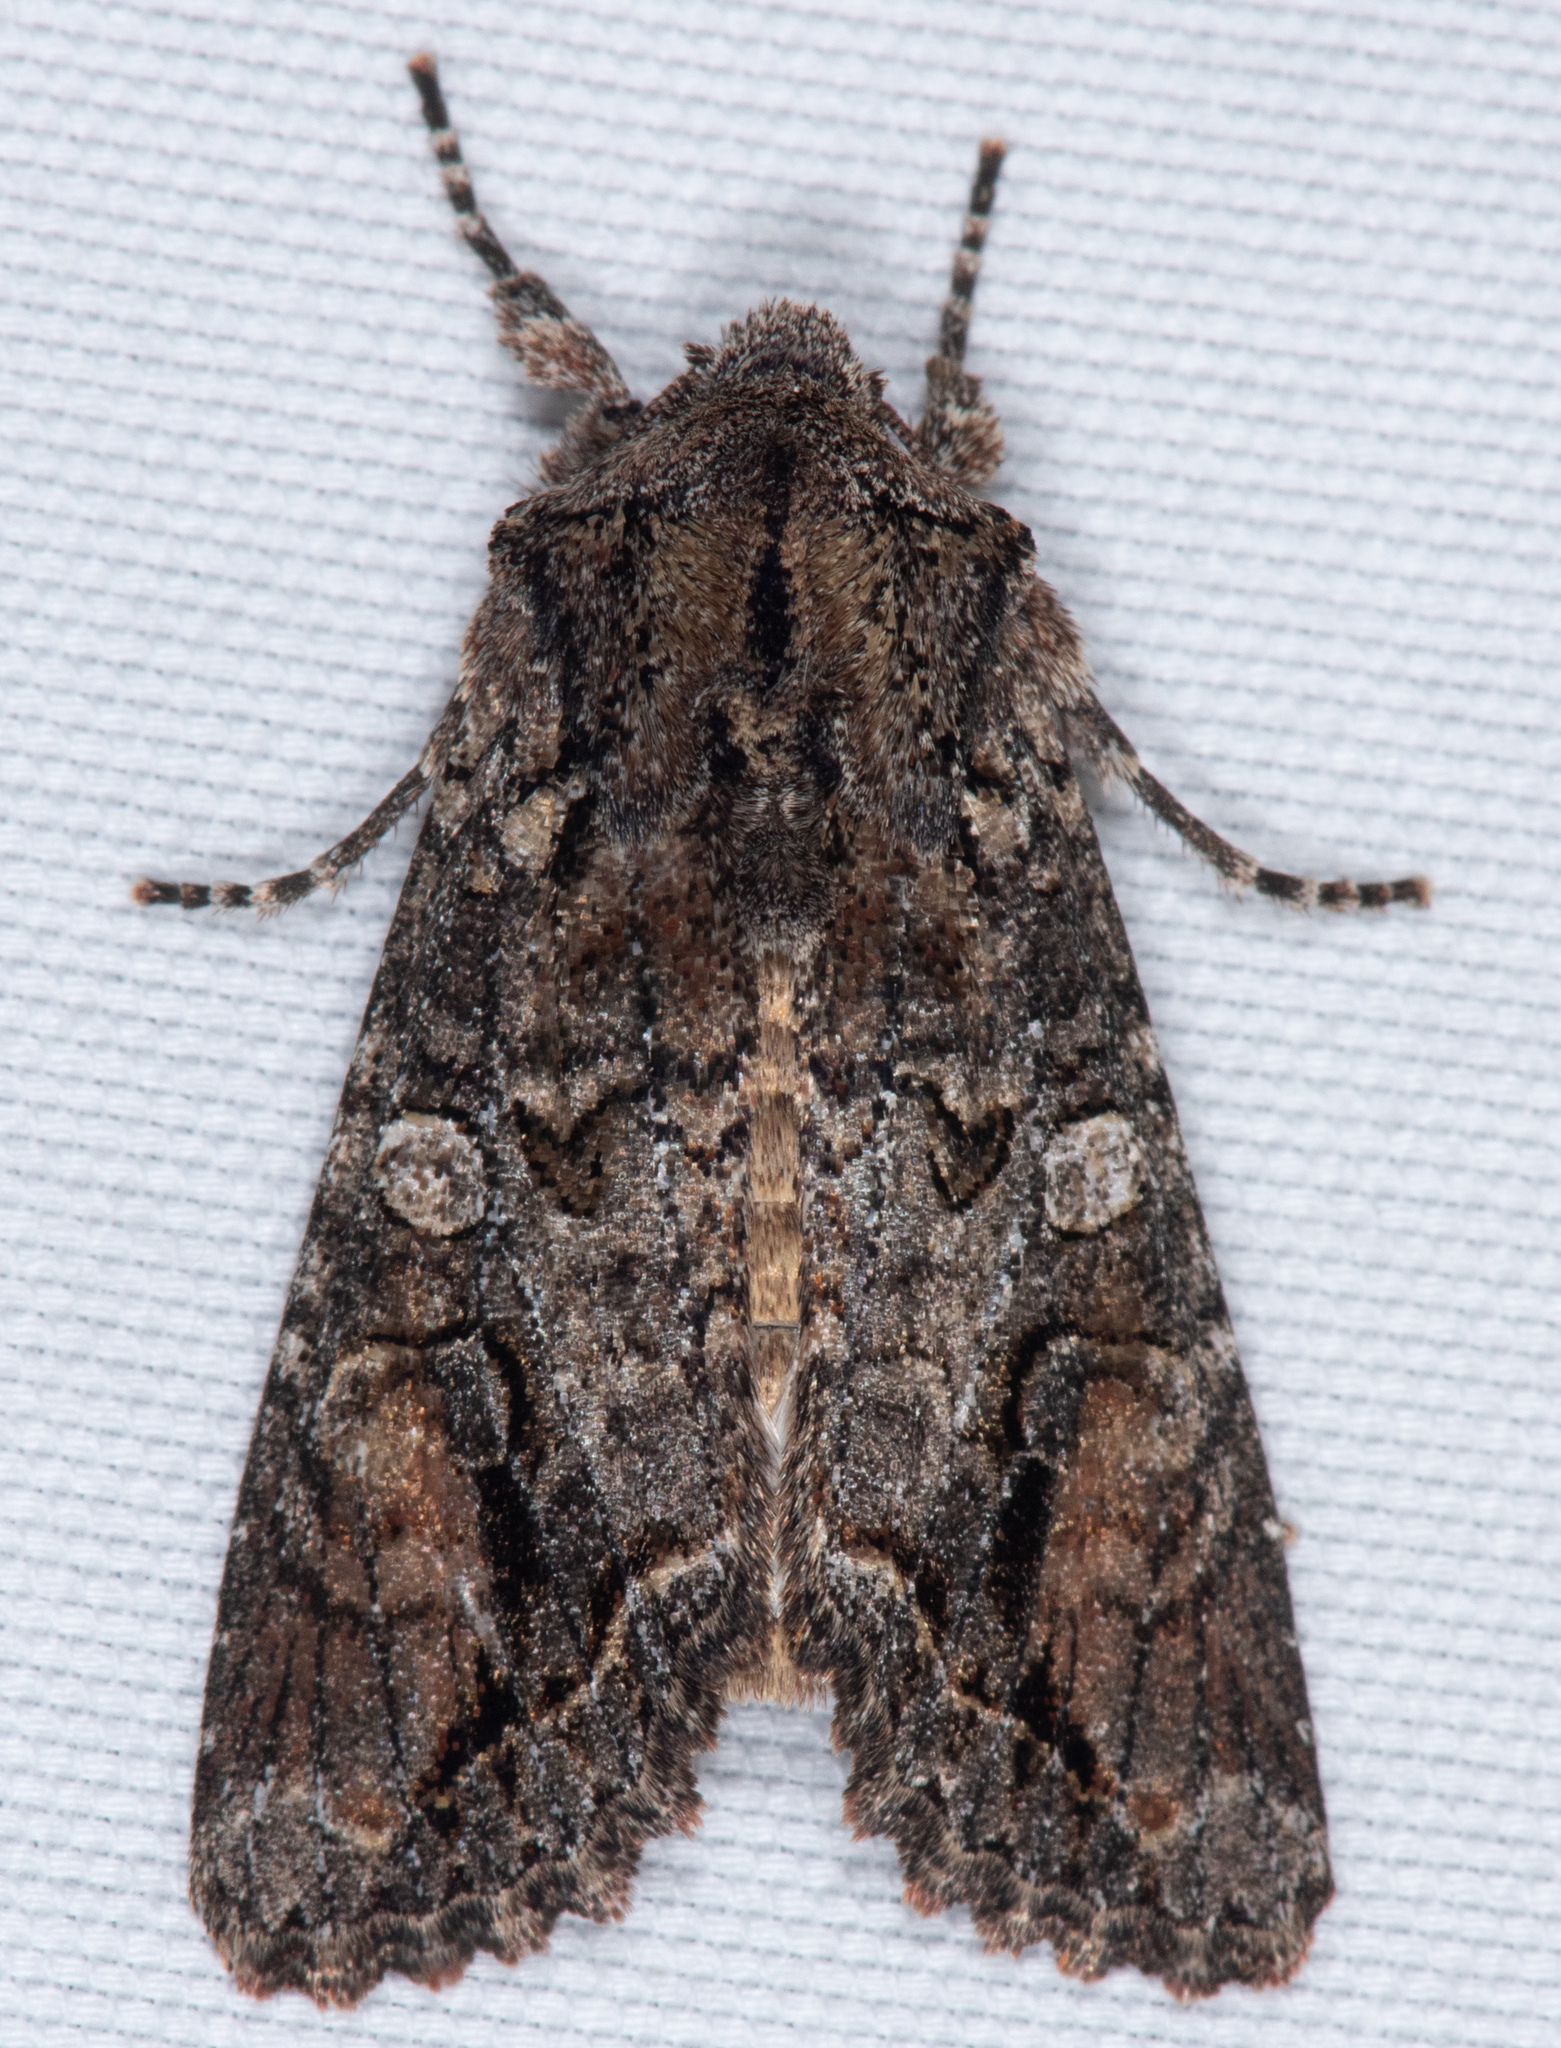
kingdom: Animalia
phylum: Arthropoda
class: Insecta
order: Lepidoptera
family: Noctuidae
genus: Egira
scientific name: Egira perlubens
